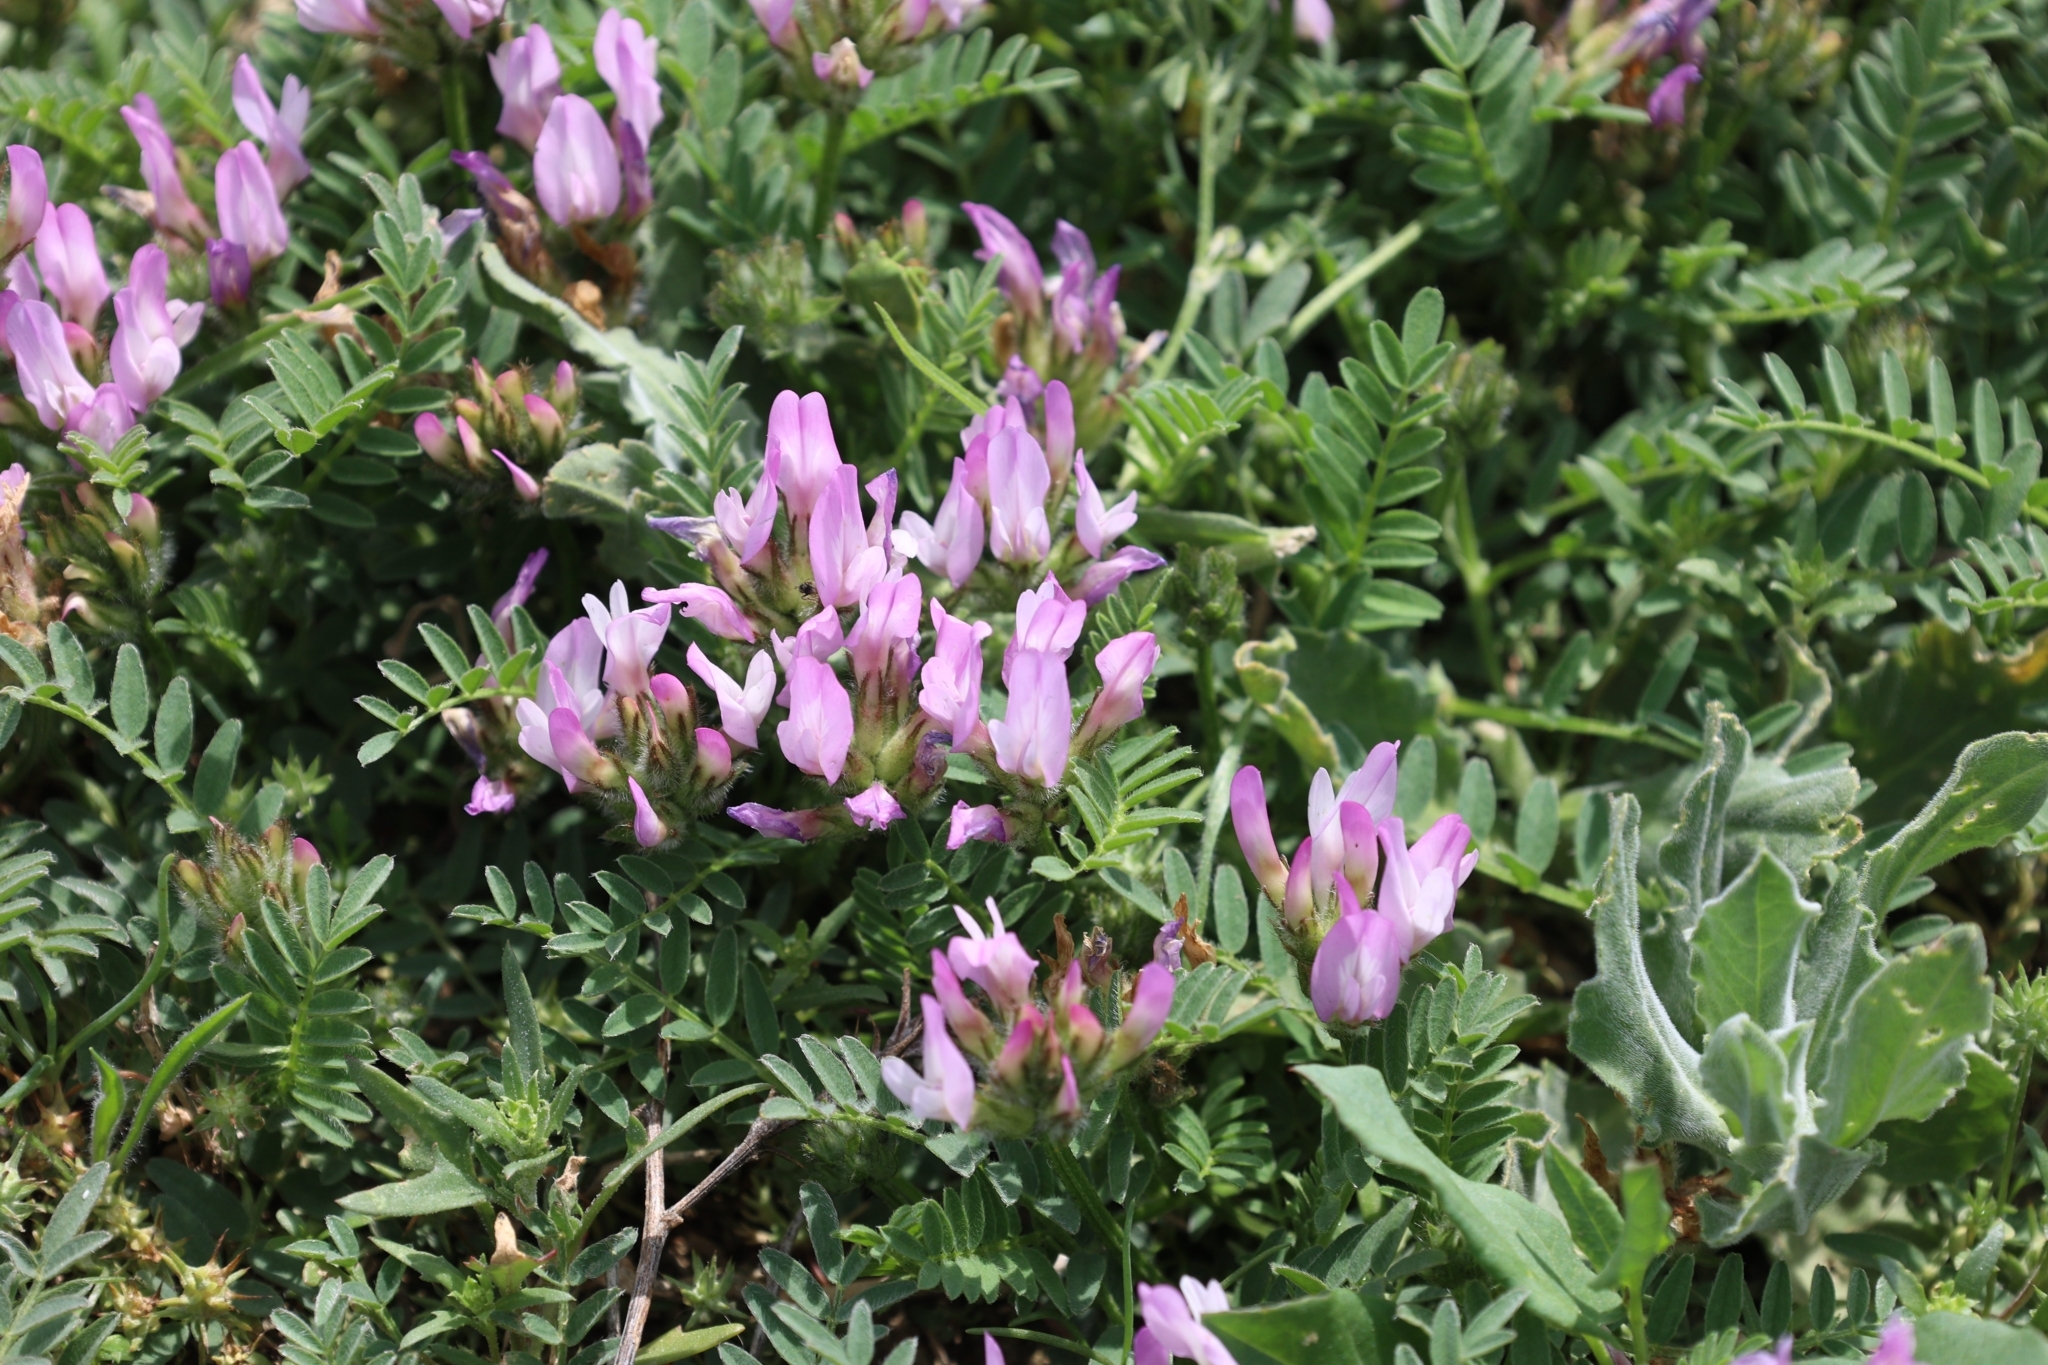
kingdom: Plantae
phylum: Tracheophyta
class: Magnoliopsida
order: Fabales
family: Fabaceae
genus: Astragalus
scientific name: Astragalus agrestis
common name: Field milk-vetch
